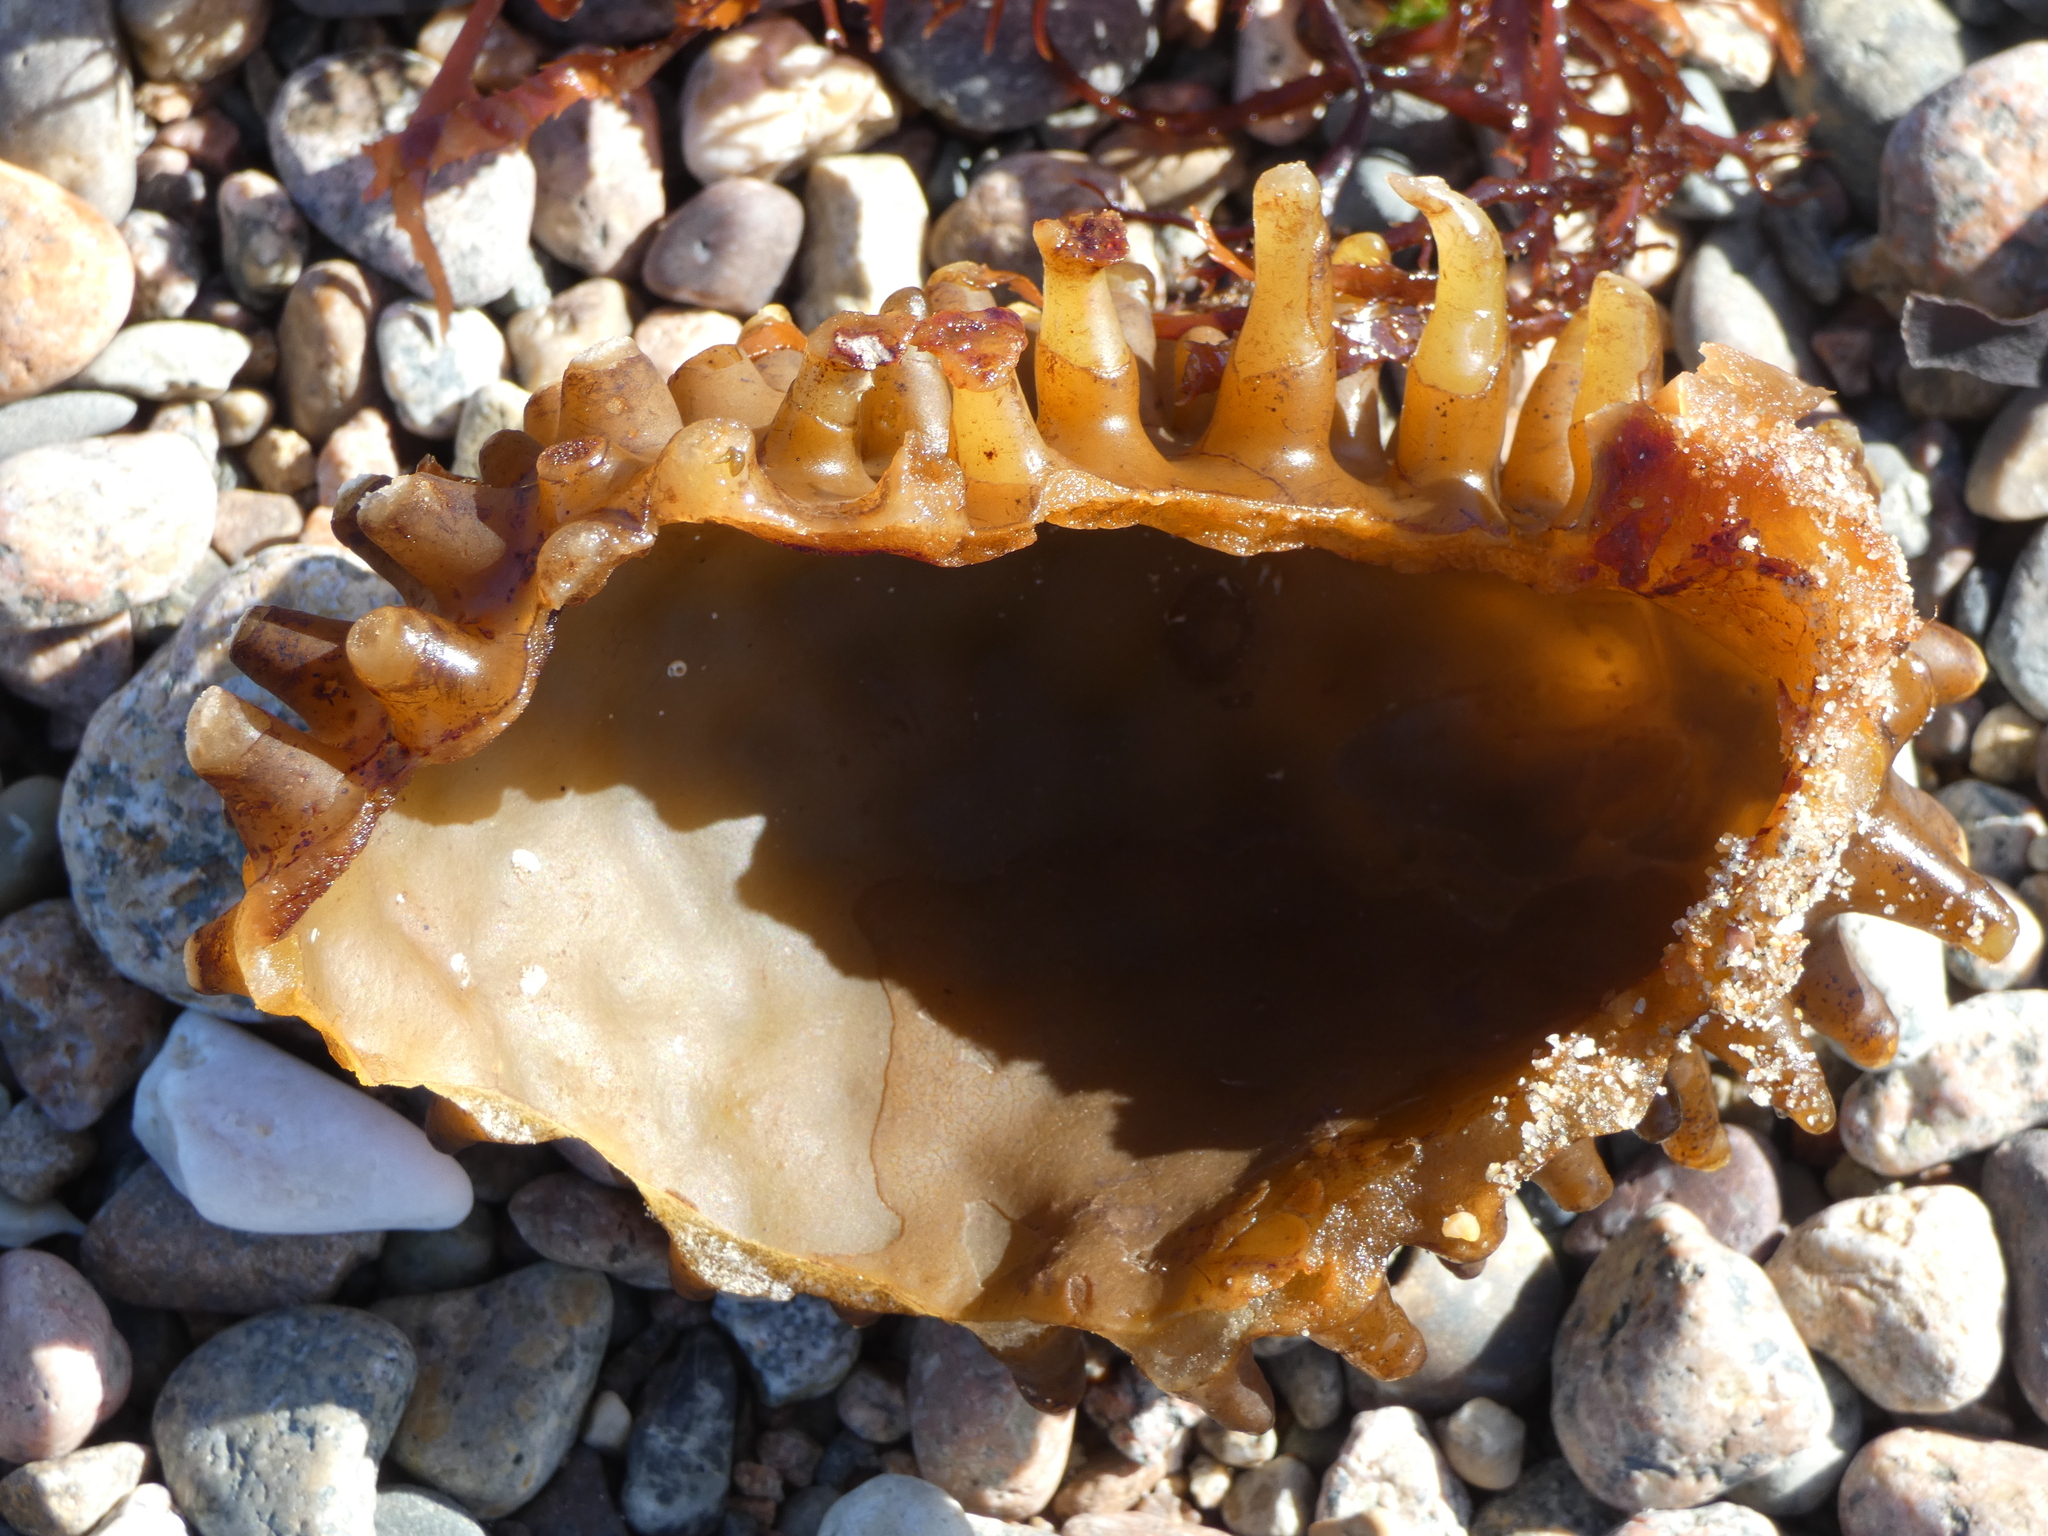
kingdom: Chromista
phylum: Ochrophyta
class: Phaeophyceae
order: Tilopteridales
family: Phyllariaceae
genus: Saccorhiza
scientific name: Saccorhiza polyschides
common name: Furbelows
